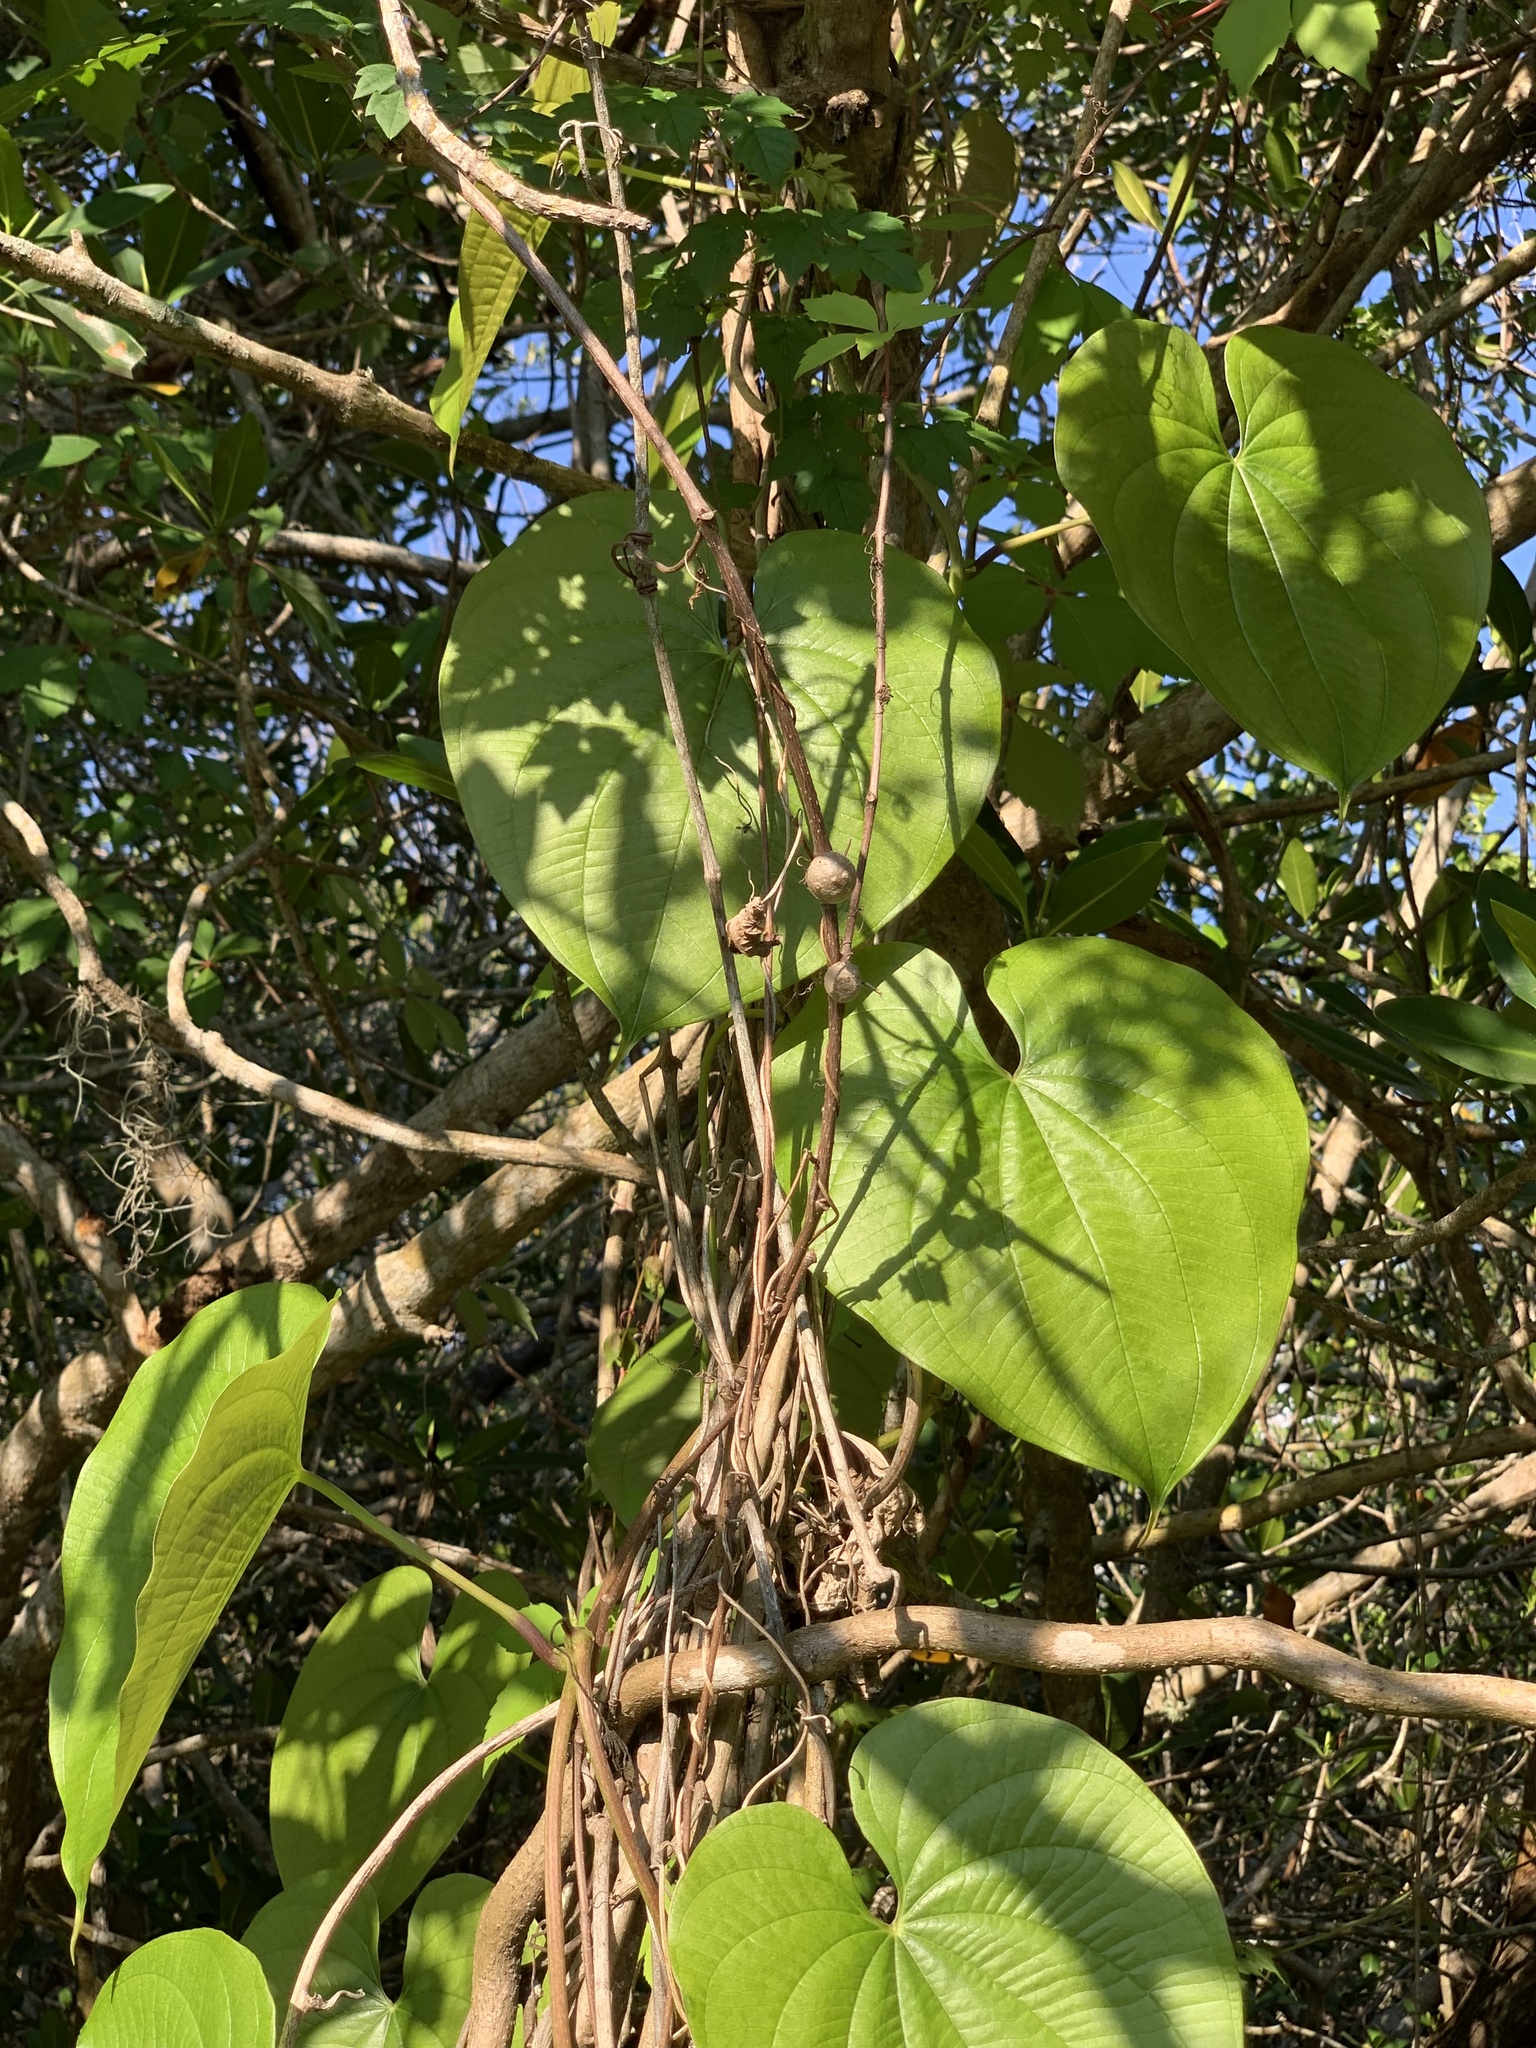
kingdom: Plantae
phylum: Tracheophyta
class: Liliopsida
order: Dioscoreales
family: Dioscoreaceae
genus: Dioscorea
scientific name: Dioscorea bulbifera
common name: Air yam
